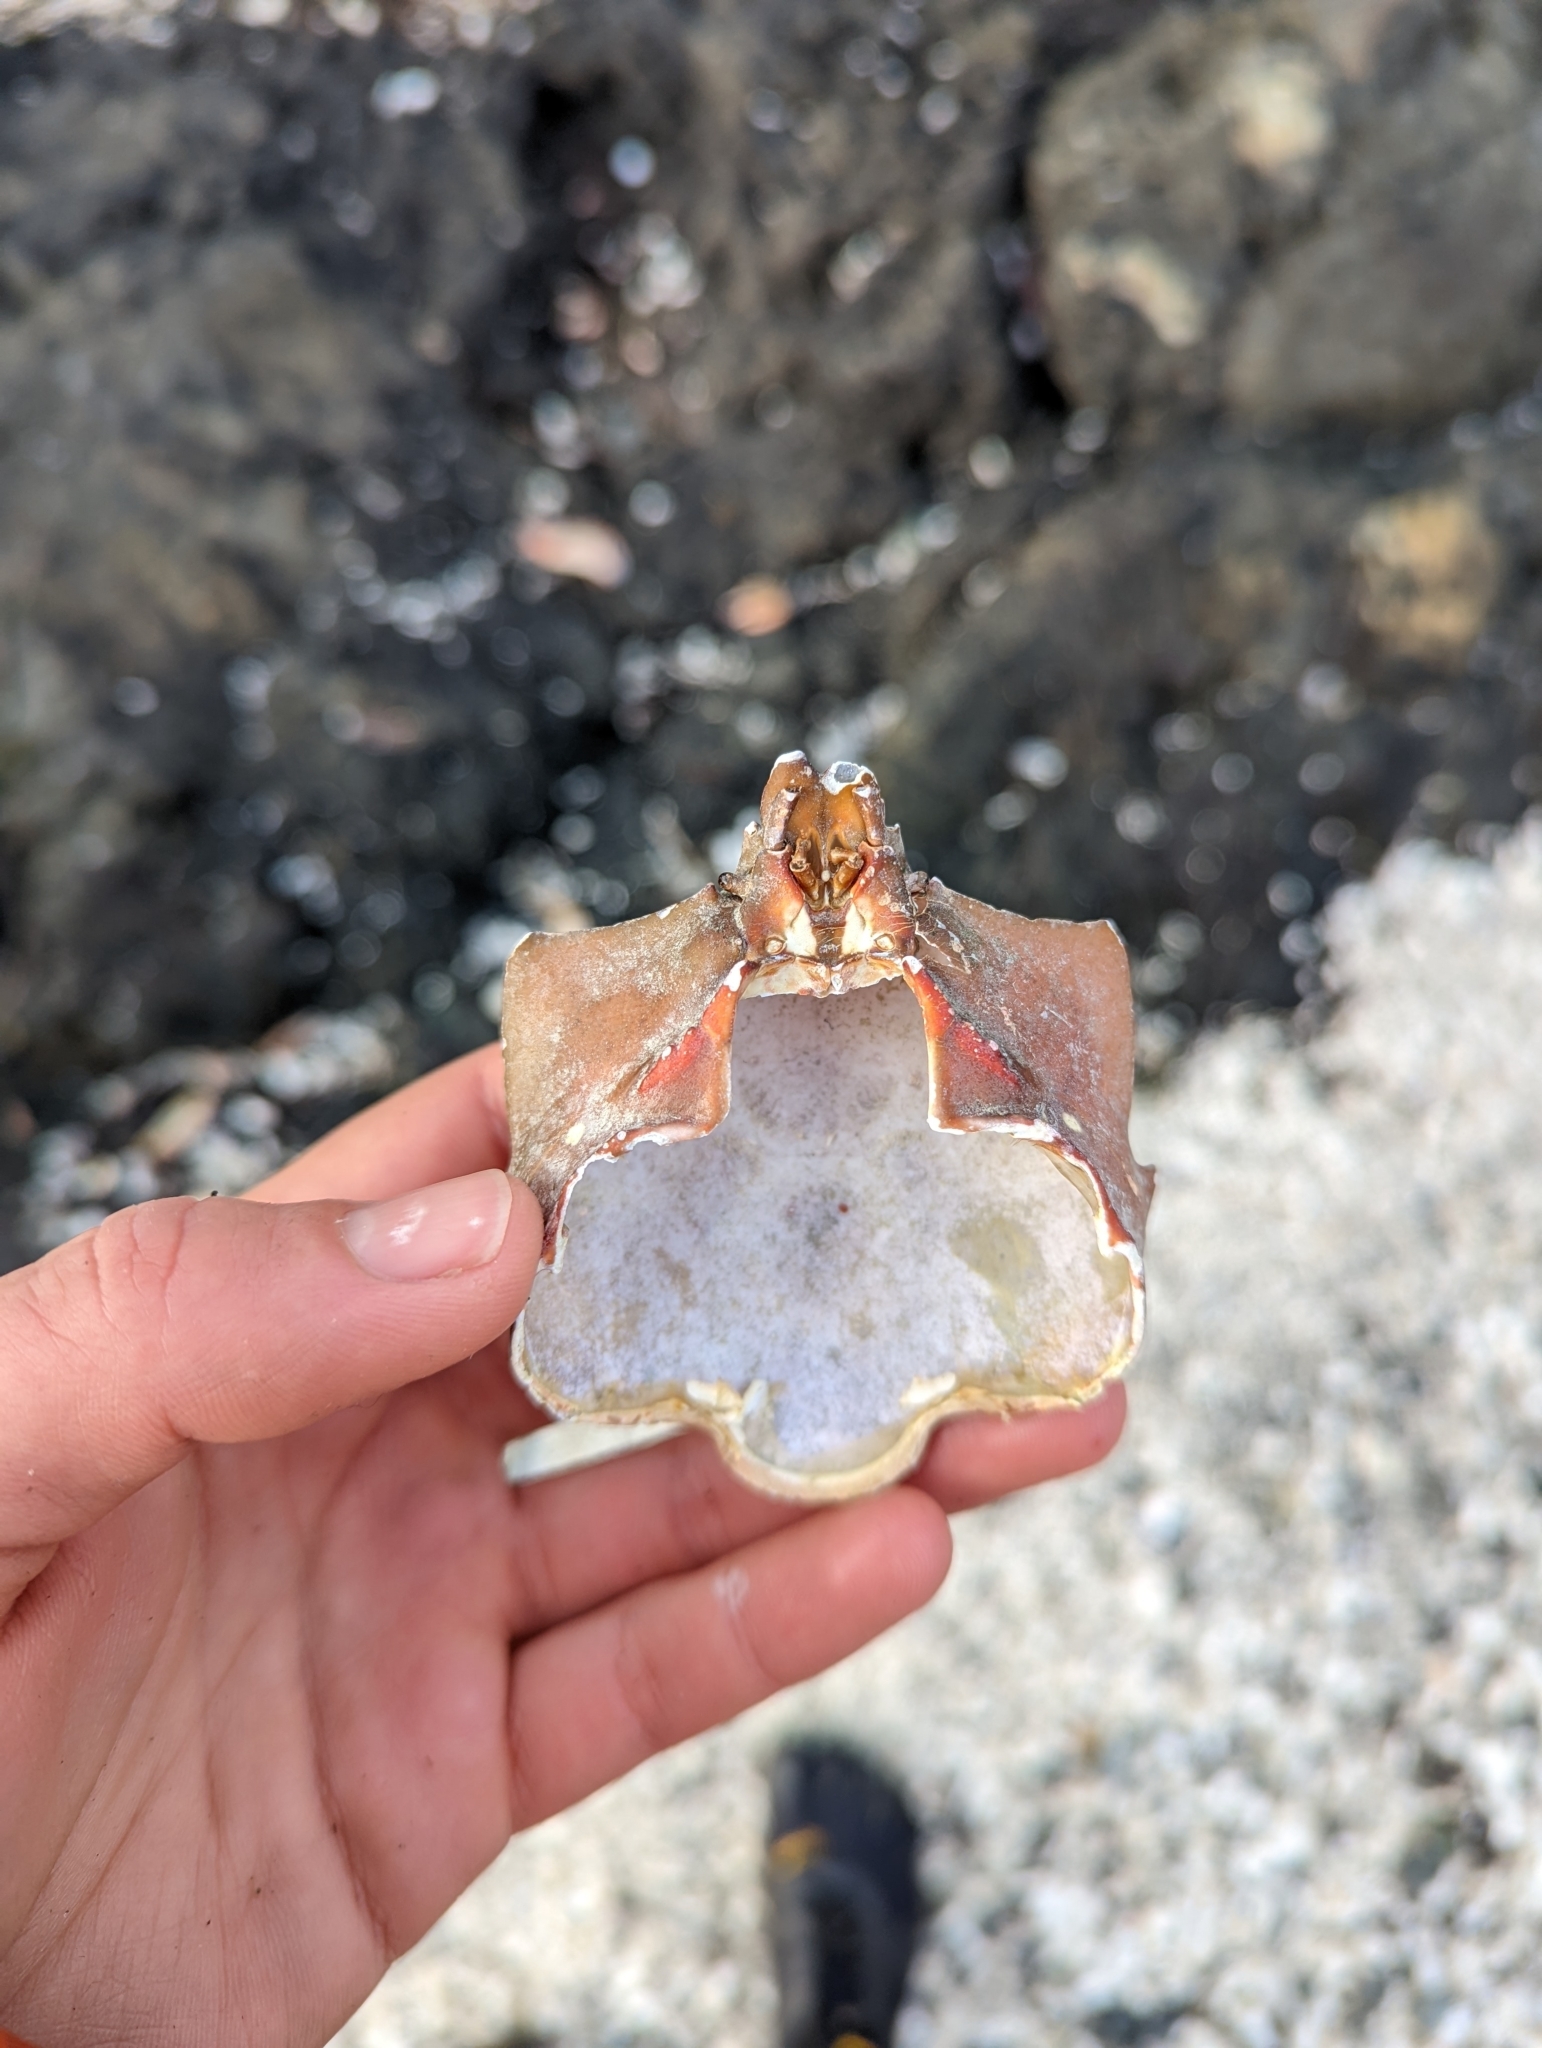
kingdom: Animalia
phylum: Arthropoda
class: Malacostraca
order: Decapoda
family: Epialtidae
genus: Pugettia
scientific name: Pugettia producta
